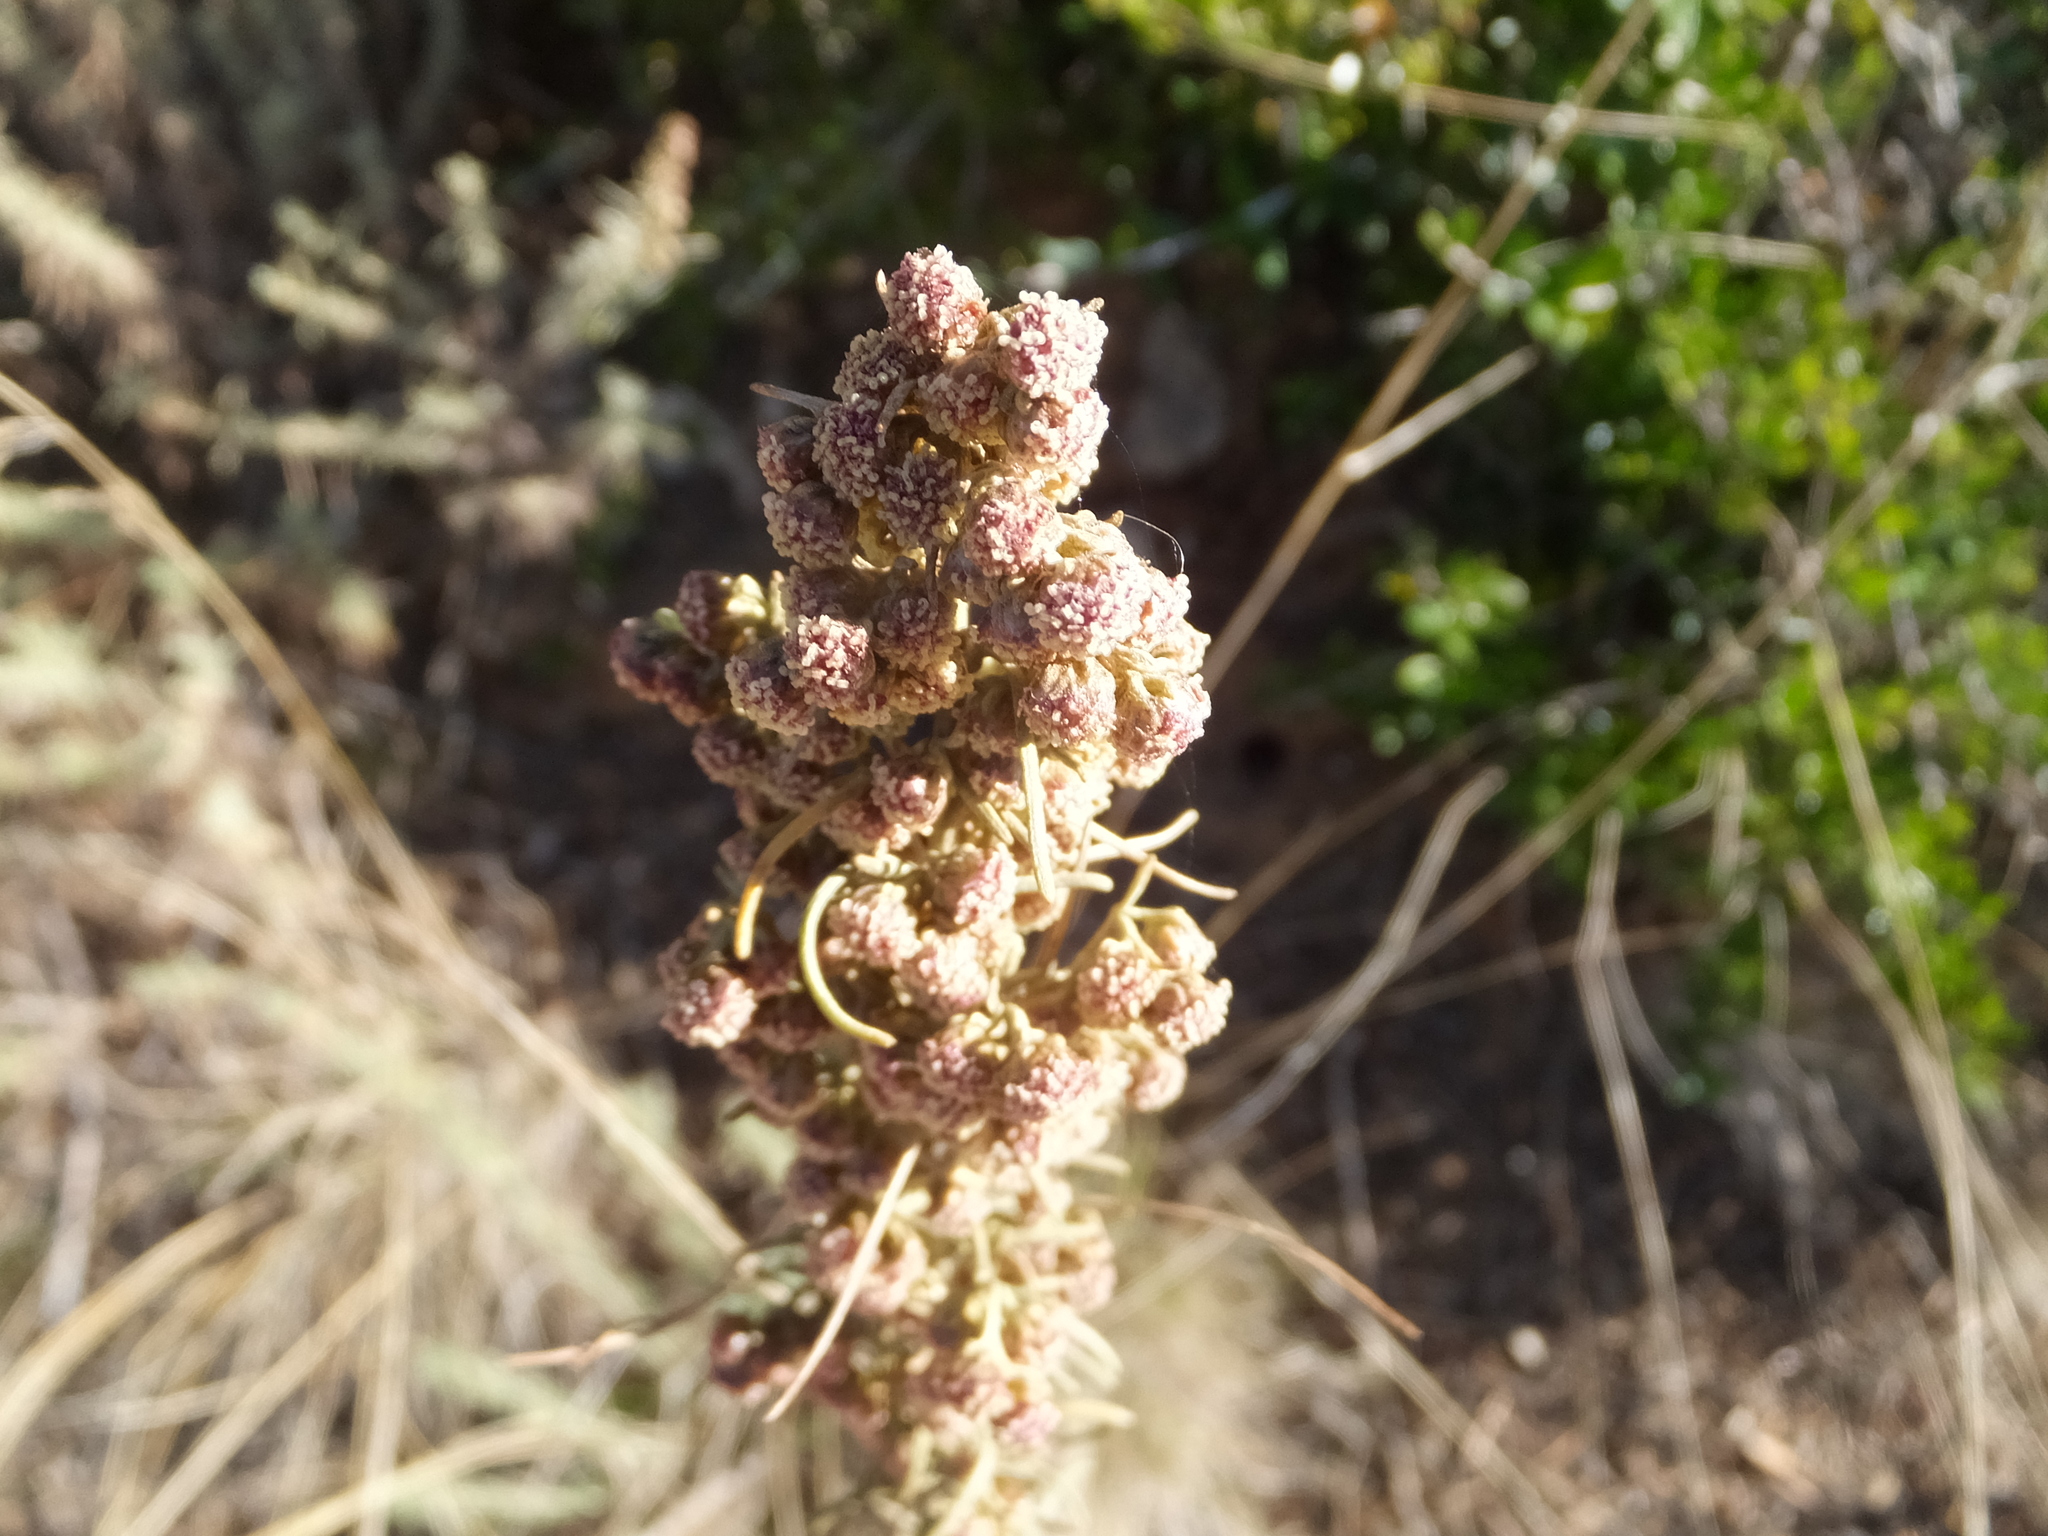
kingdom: Plantae
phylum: Tracheophyta
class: Magnoliopsida
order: Asterales
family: Asteraceae
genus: Artemisia
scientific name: Artemisia californica
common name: California sagebrush
